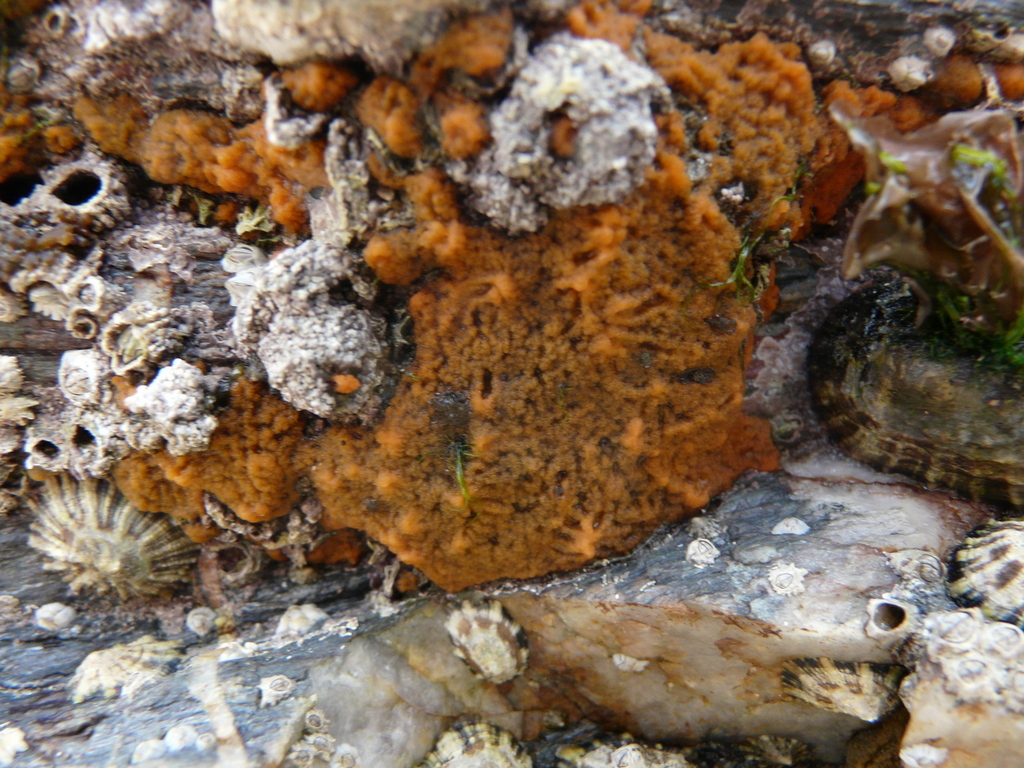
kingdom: Animalia
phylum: Porifera
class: Demospongiae
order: Suberitida
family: Halichondriidae
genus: Hymeniacidon
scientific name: Hymeniacidon perlevis
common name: Crumb-of-bread sponge
